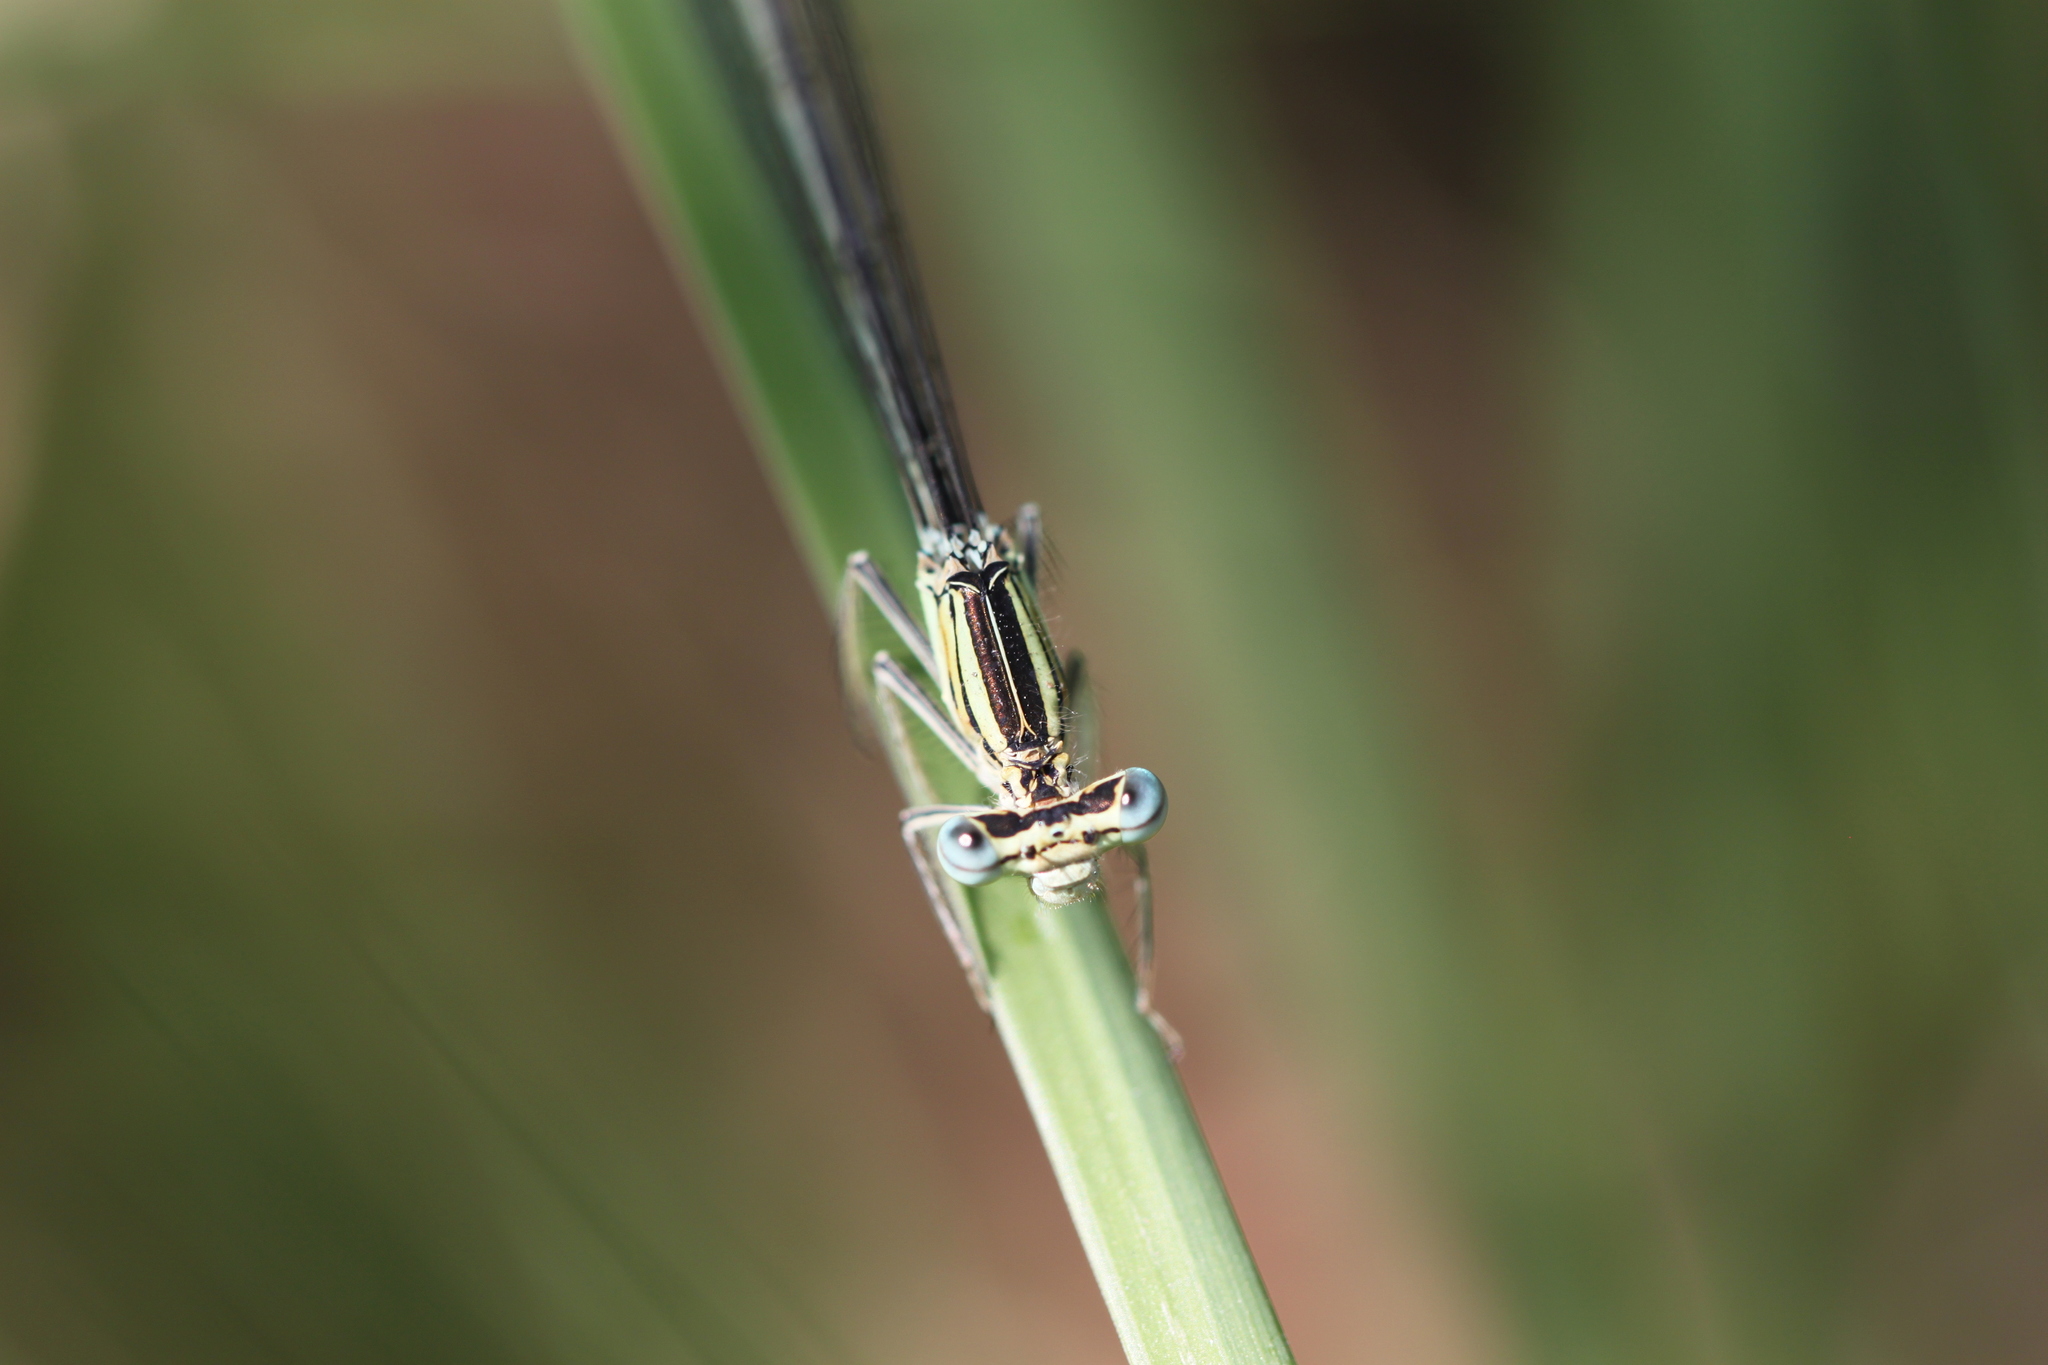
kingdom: Animalia
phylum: Arthropoda
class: Insecta
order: Odonata
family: Platycnemididae
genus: Platycnemis
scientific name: Platycnemis pennipes
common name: White-legged damselfly
